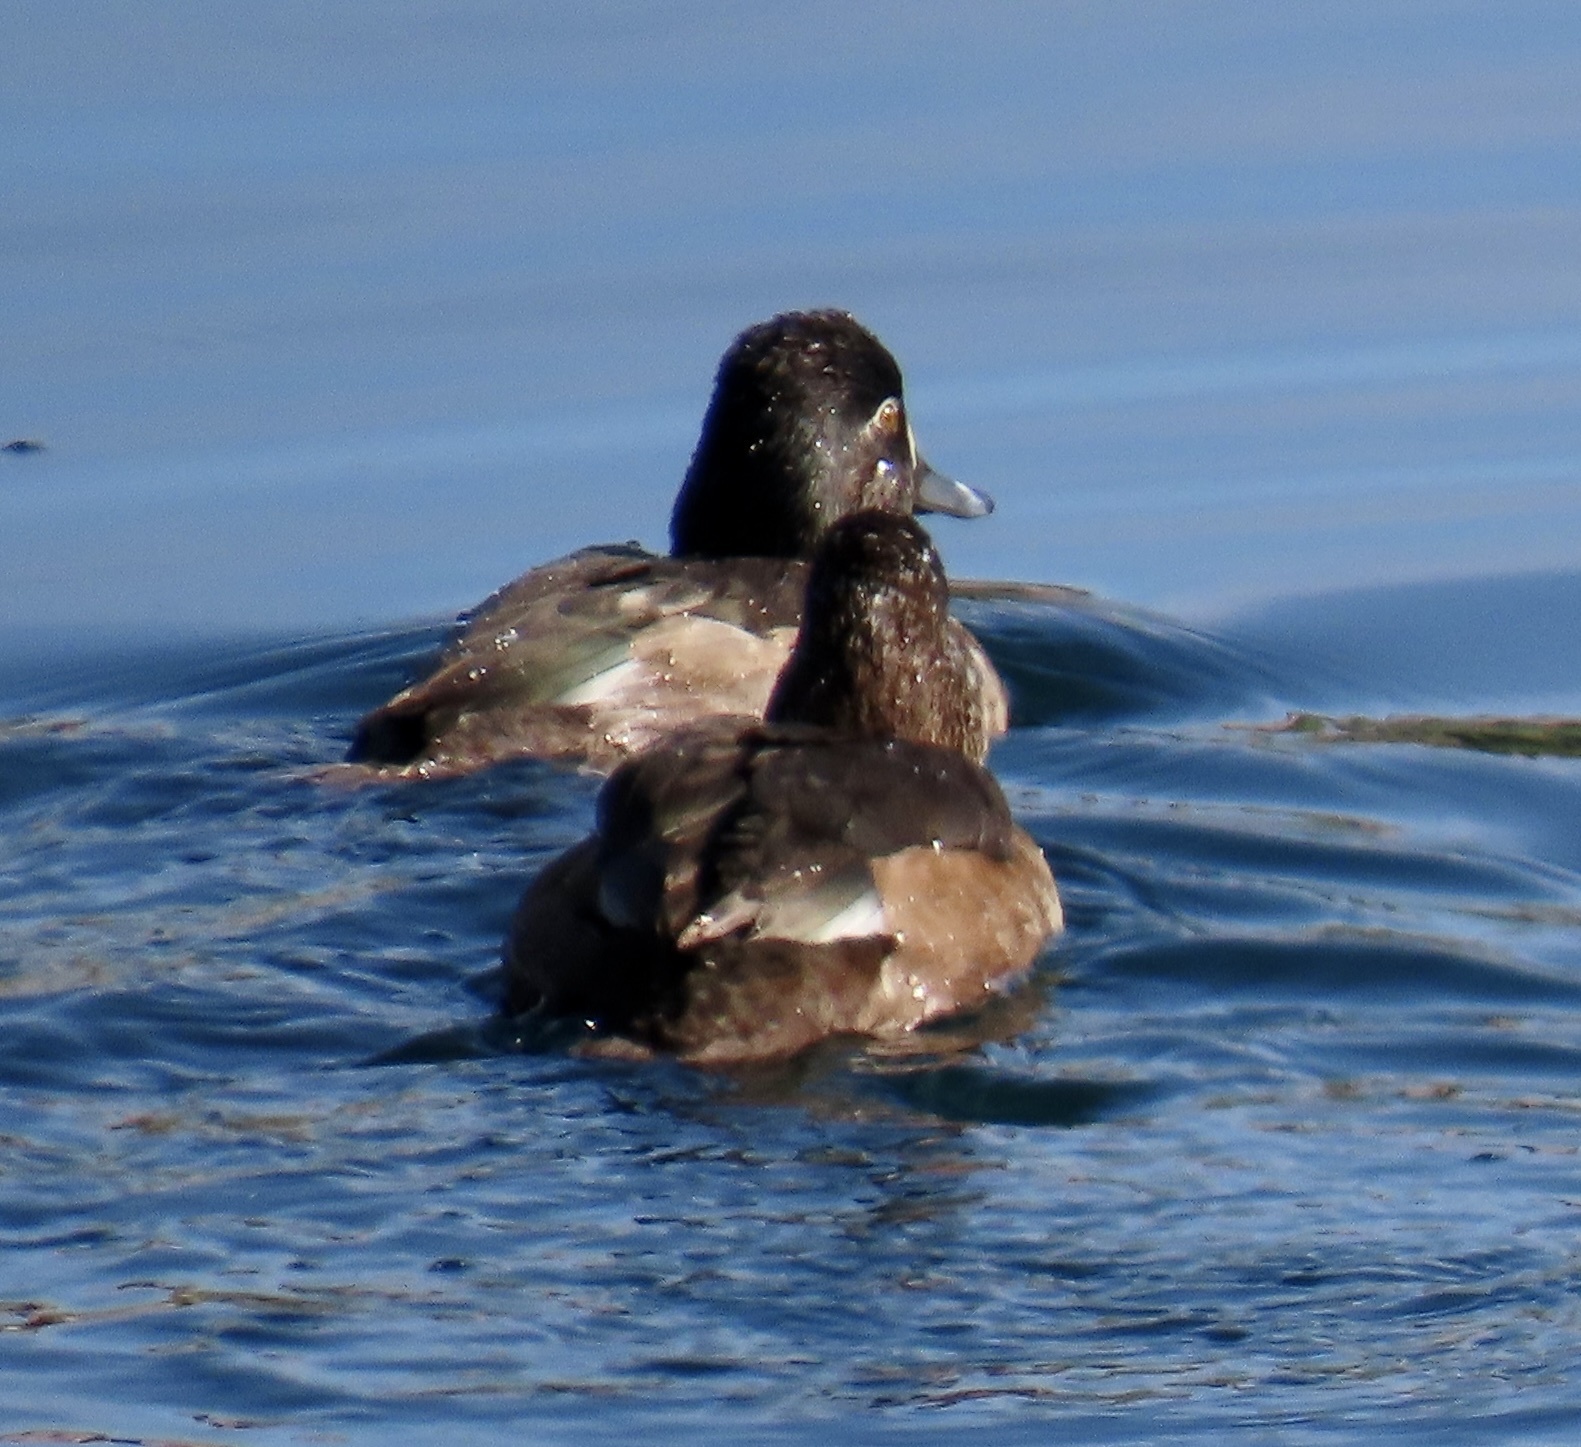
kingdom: Animalia
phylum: Chordata
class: Aves
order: Anseriformes
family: Anatidae
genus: Aythya
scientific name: Aythya collaris
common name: Ring-necked duck
